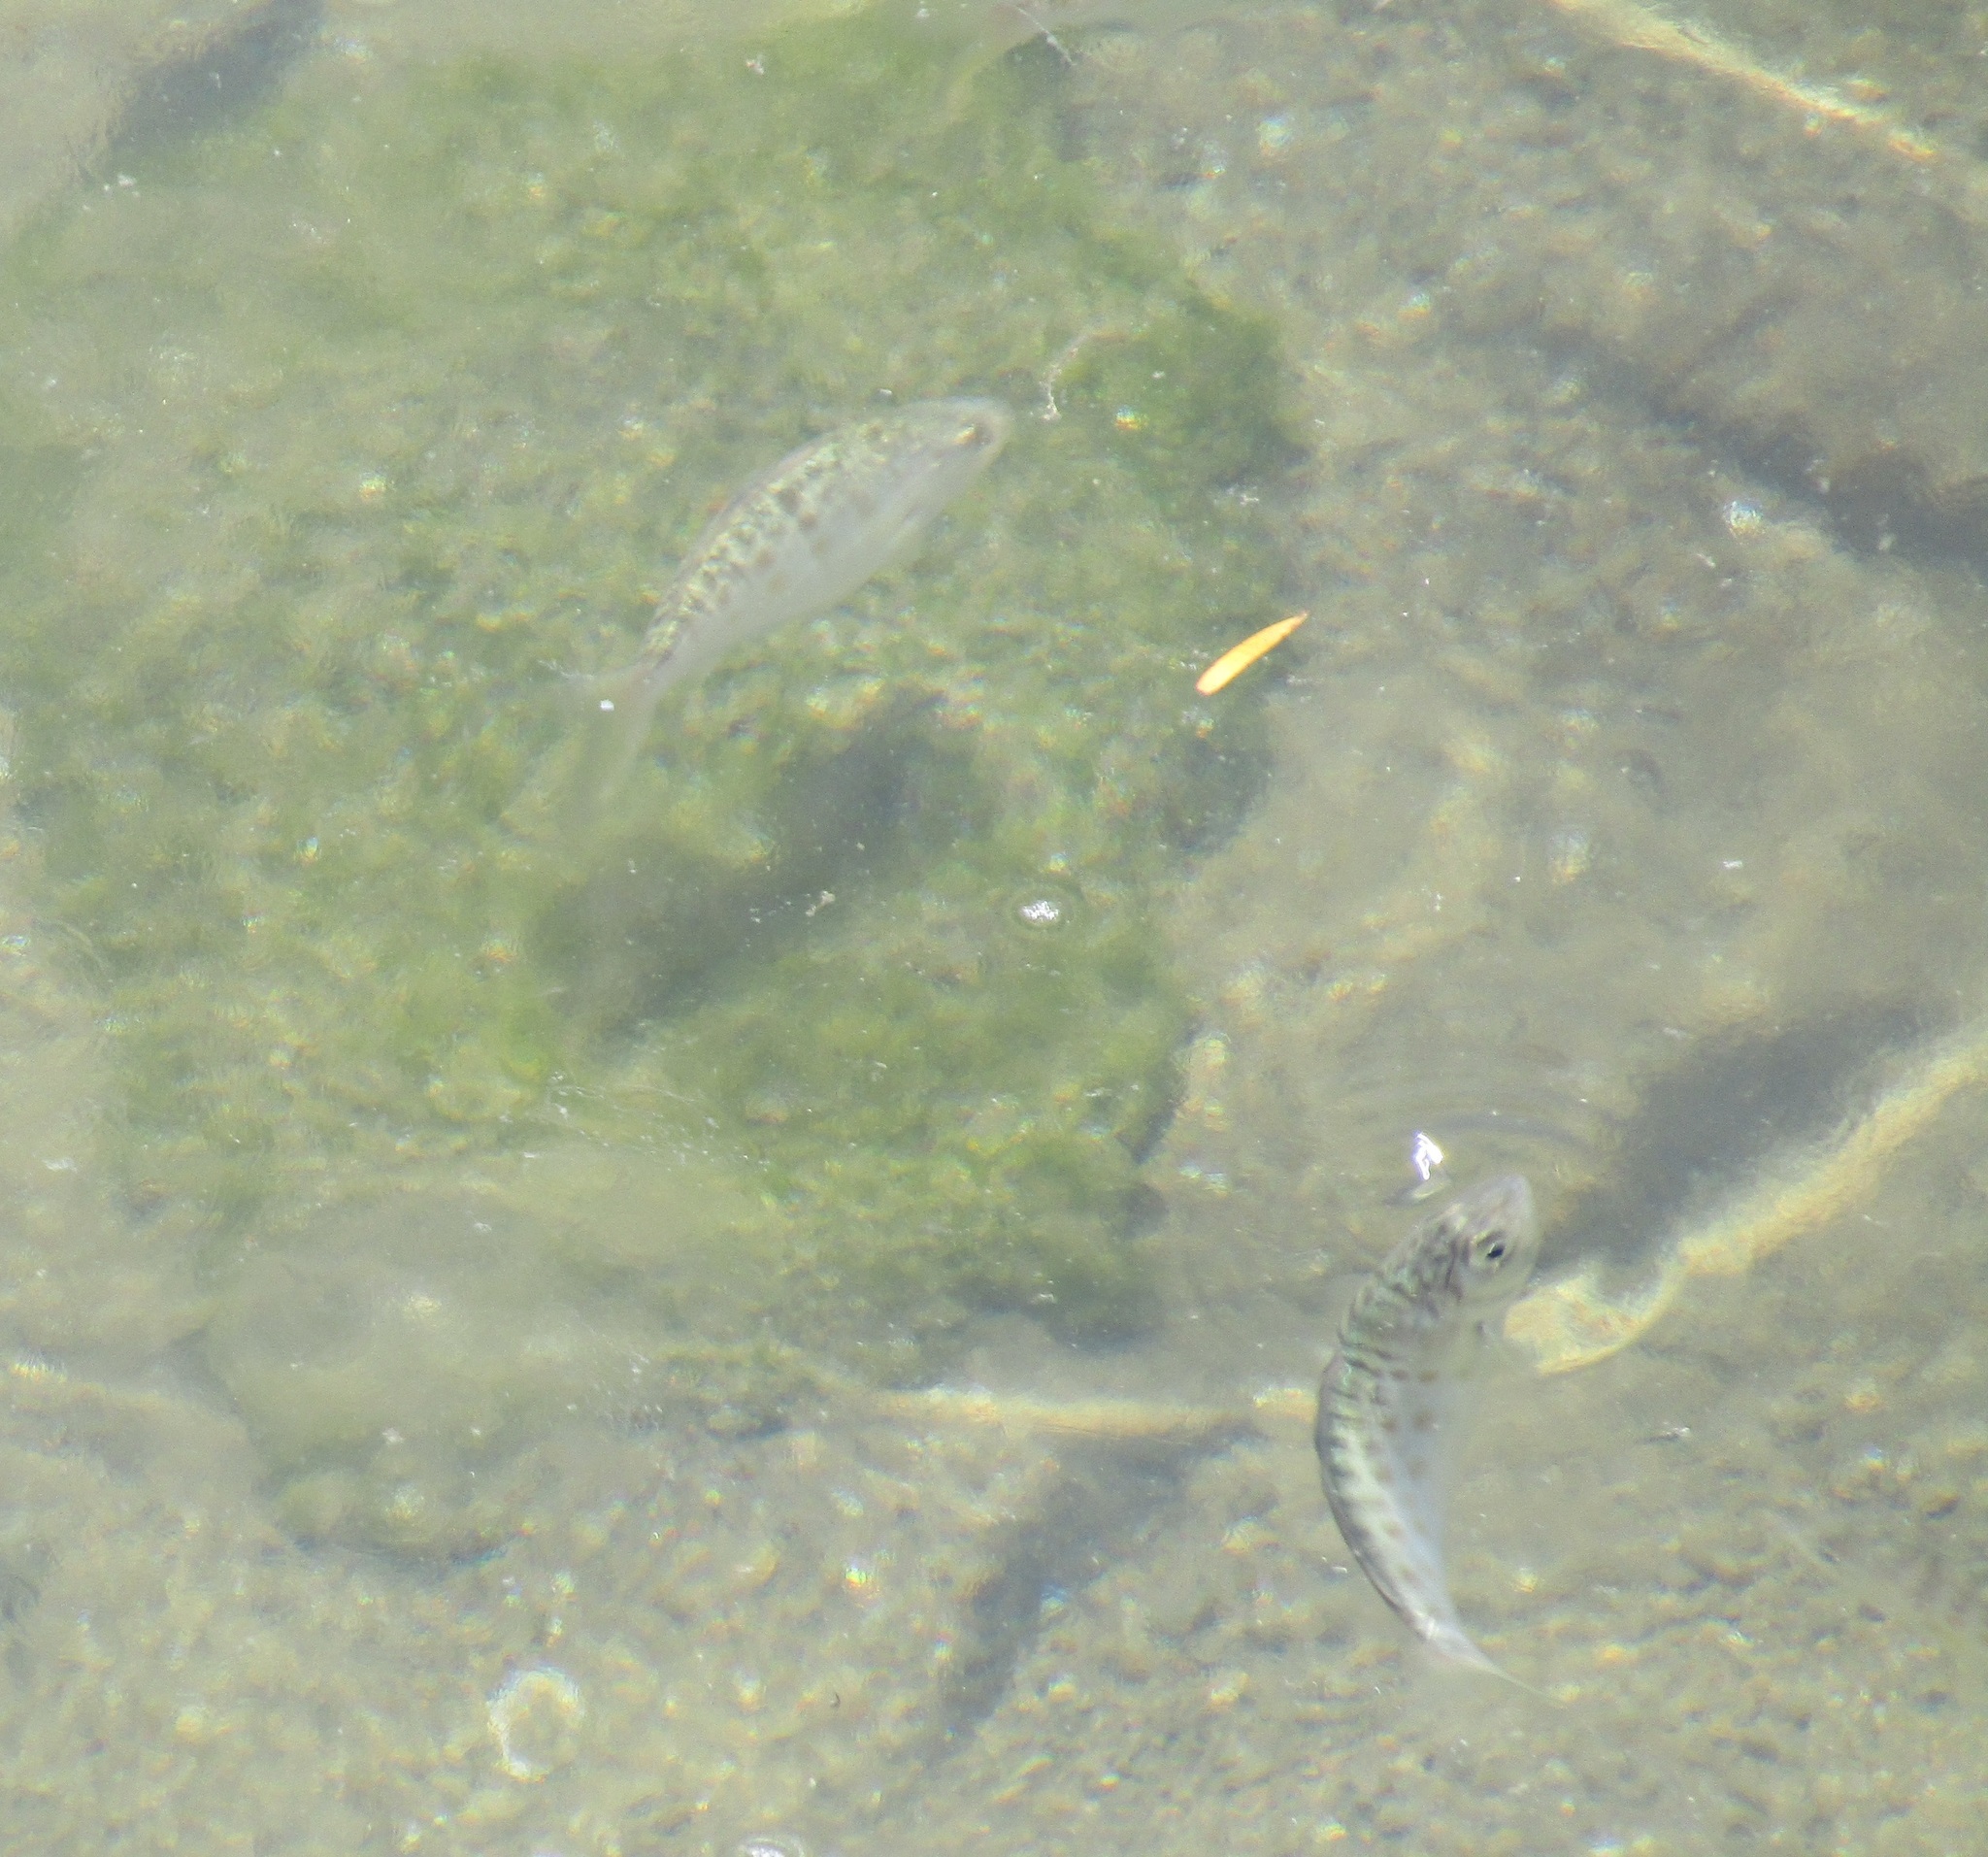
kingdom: Animalia
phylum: Chordata
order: Perciformes
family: Arripidae
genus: Arripis
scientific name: Arripis trutta
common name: Kahawai
